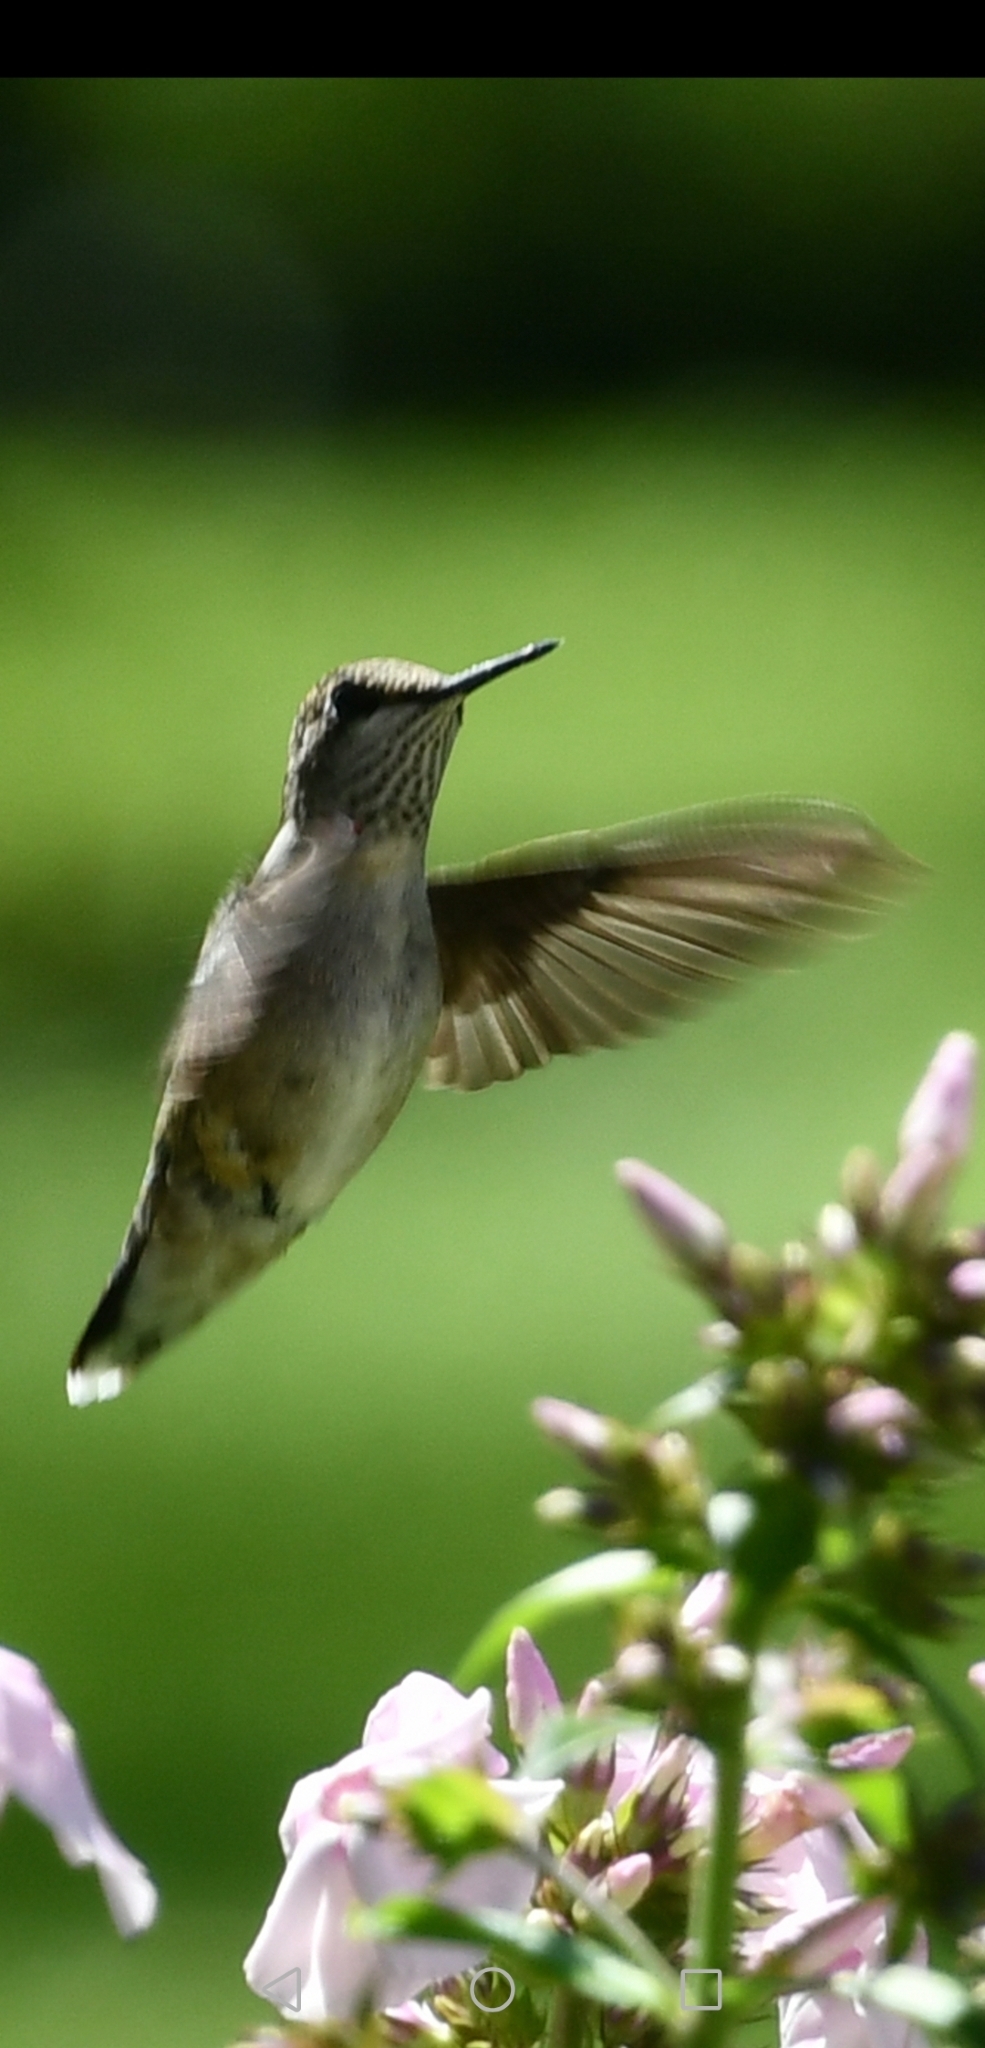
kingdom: Animalia
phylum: Chordata
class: Aves
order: Apodiformes
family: Trochilidae
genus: Archilochus
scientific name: Archilochus colubris
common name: Ruby-throated hummingbird
